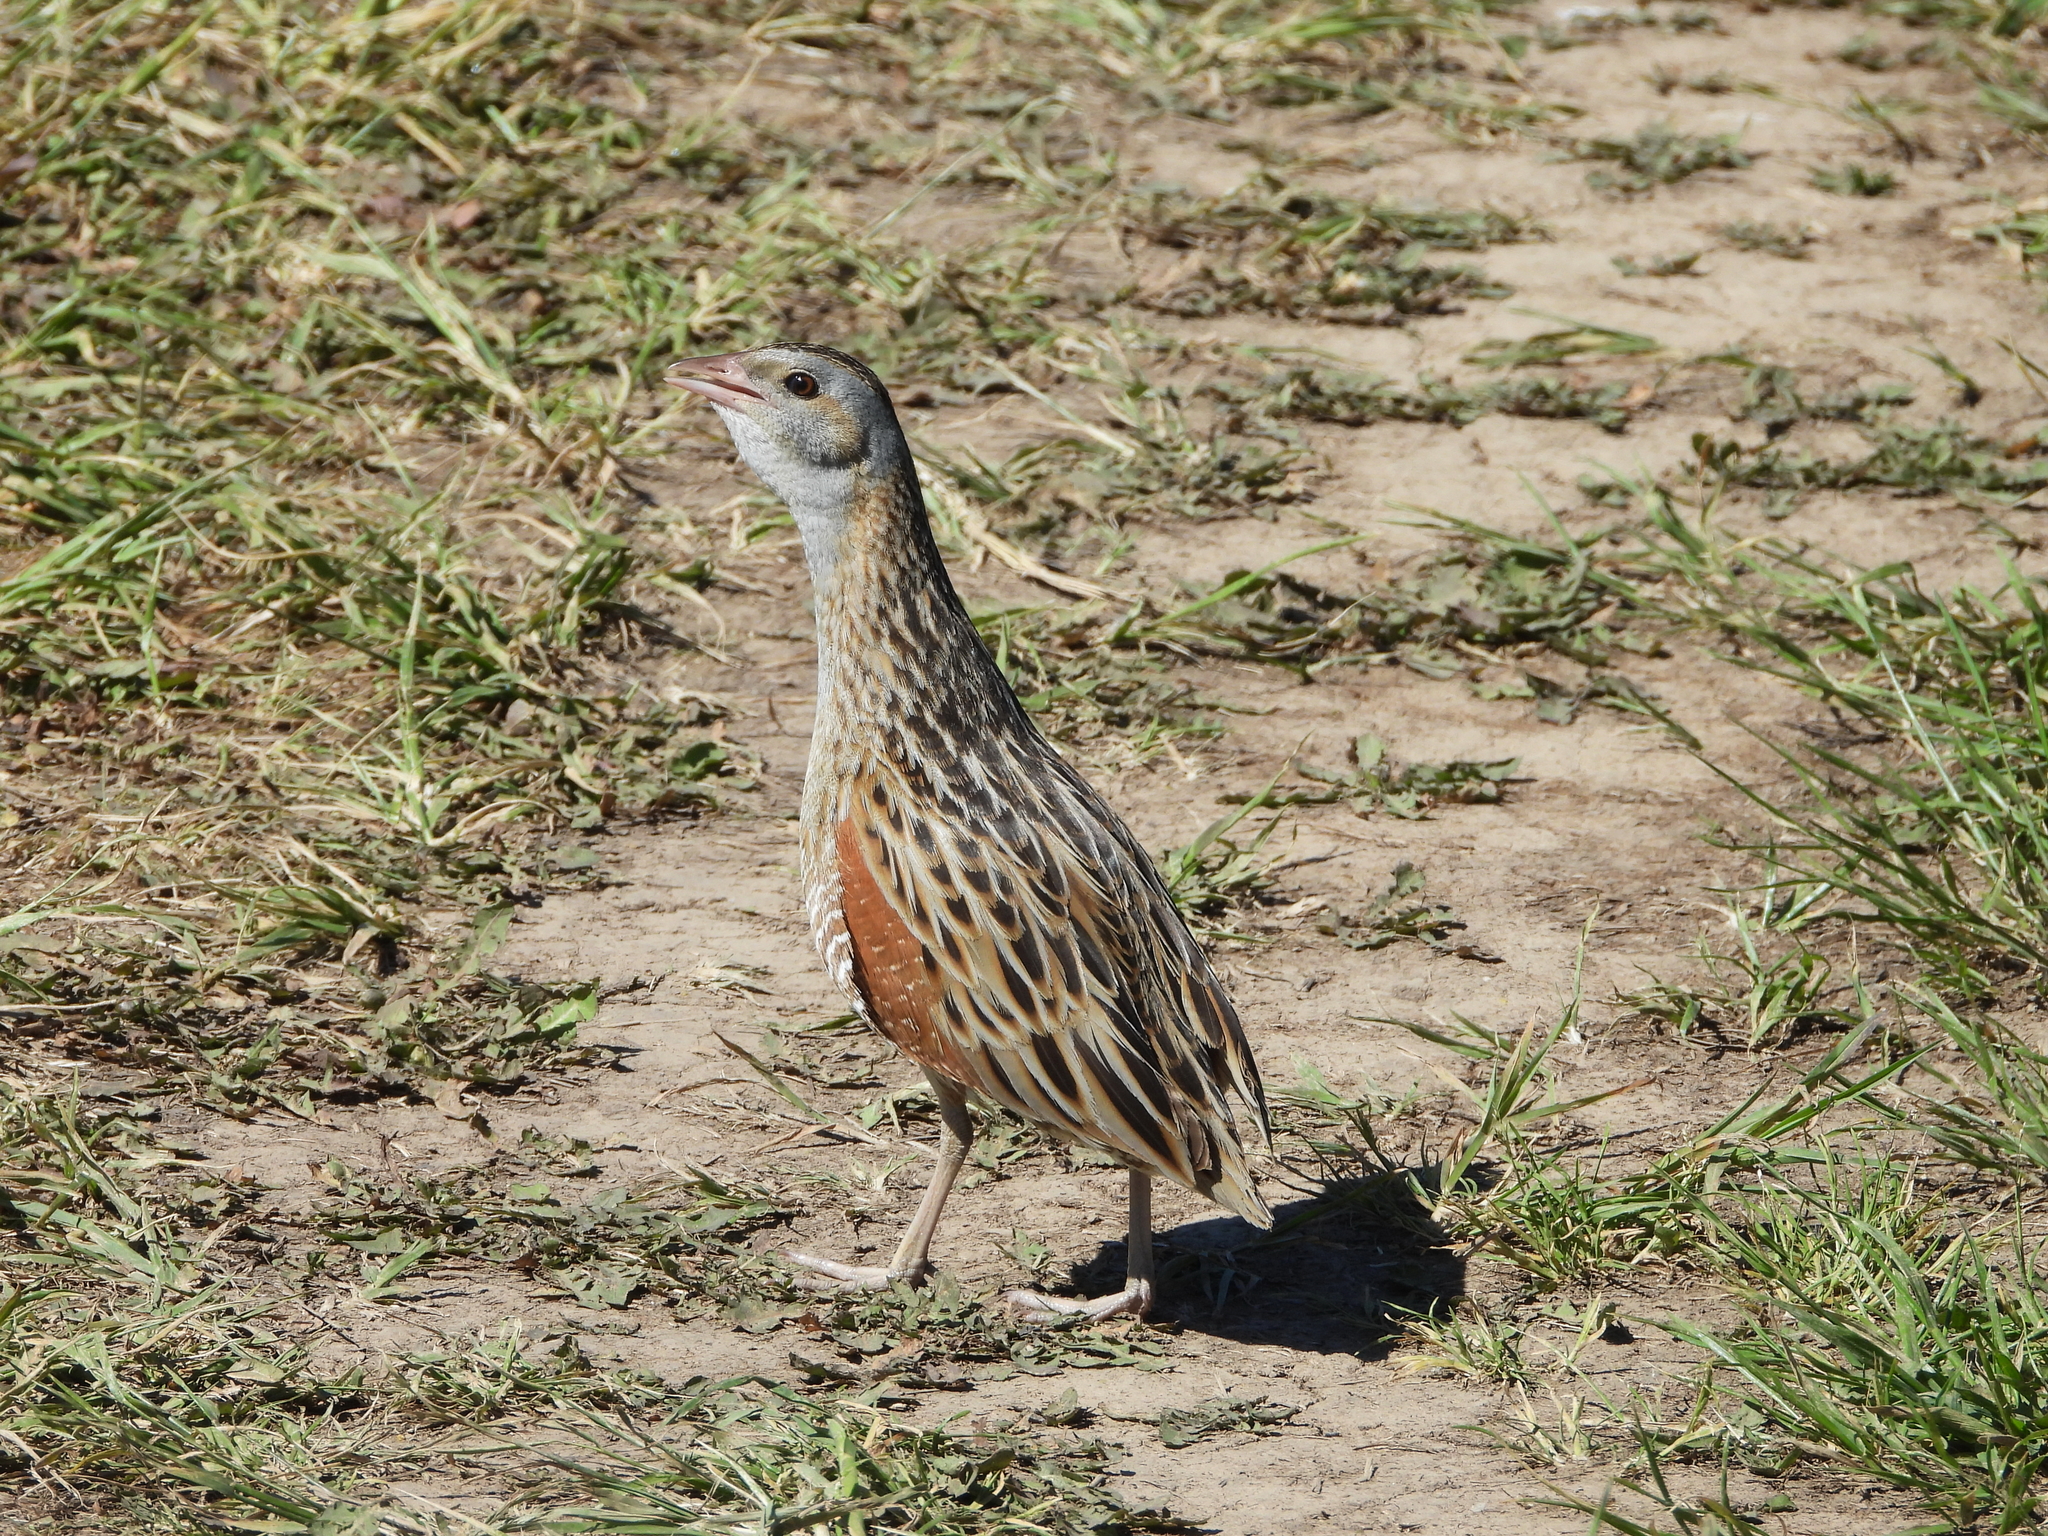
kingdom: Animalia
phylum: Chordata
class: Aves
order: Gruiformes
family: Rallidae
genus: Crex
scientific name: Crex crex
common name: Corn crake
